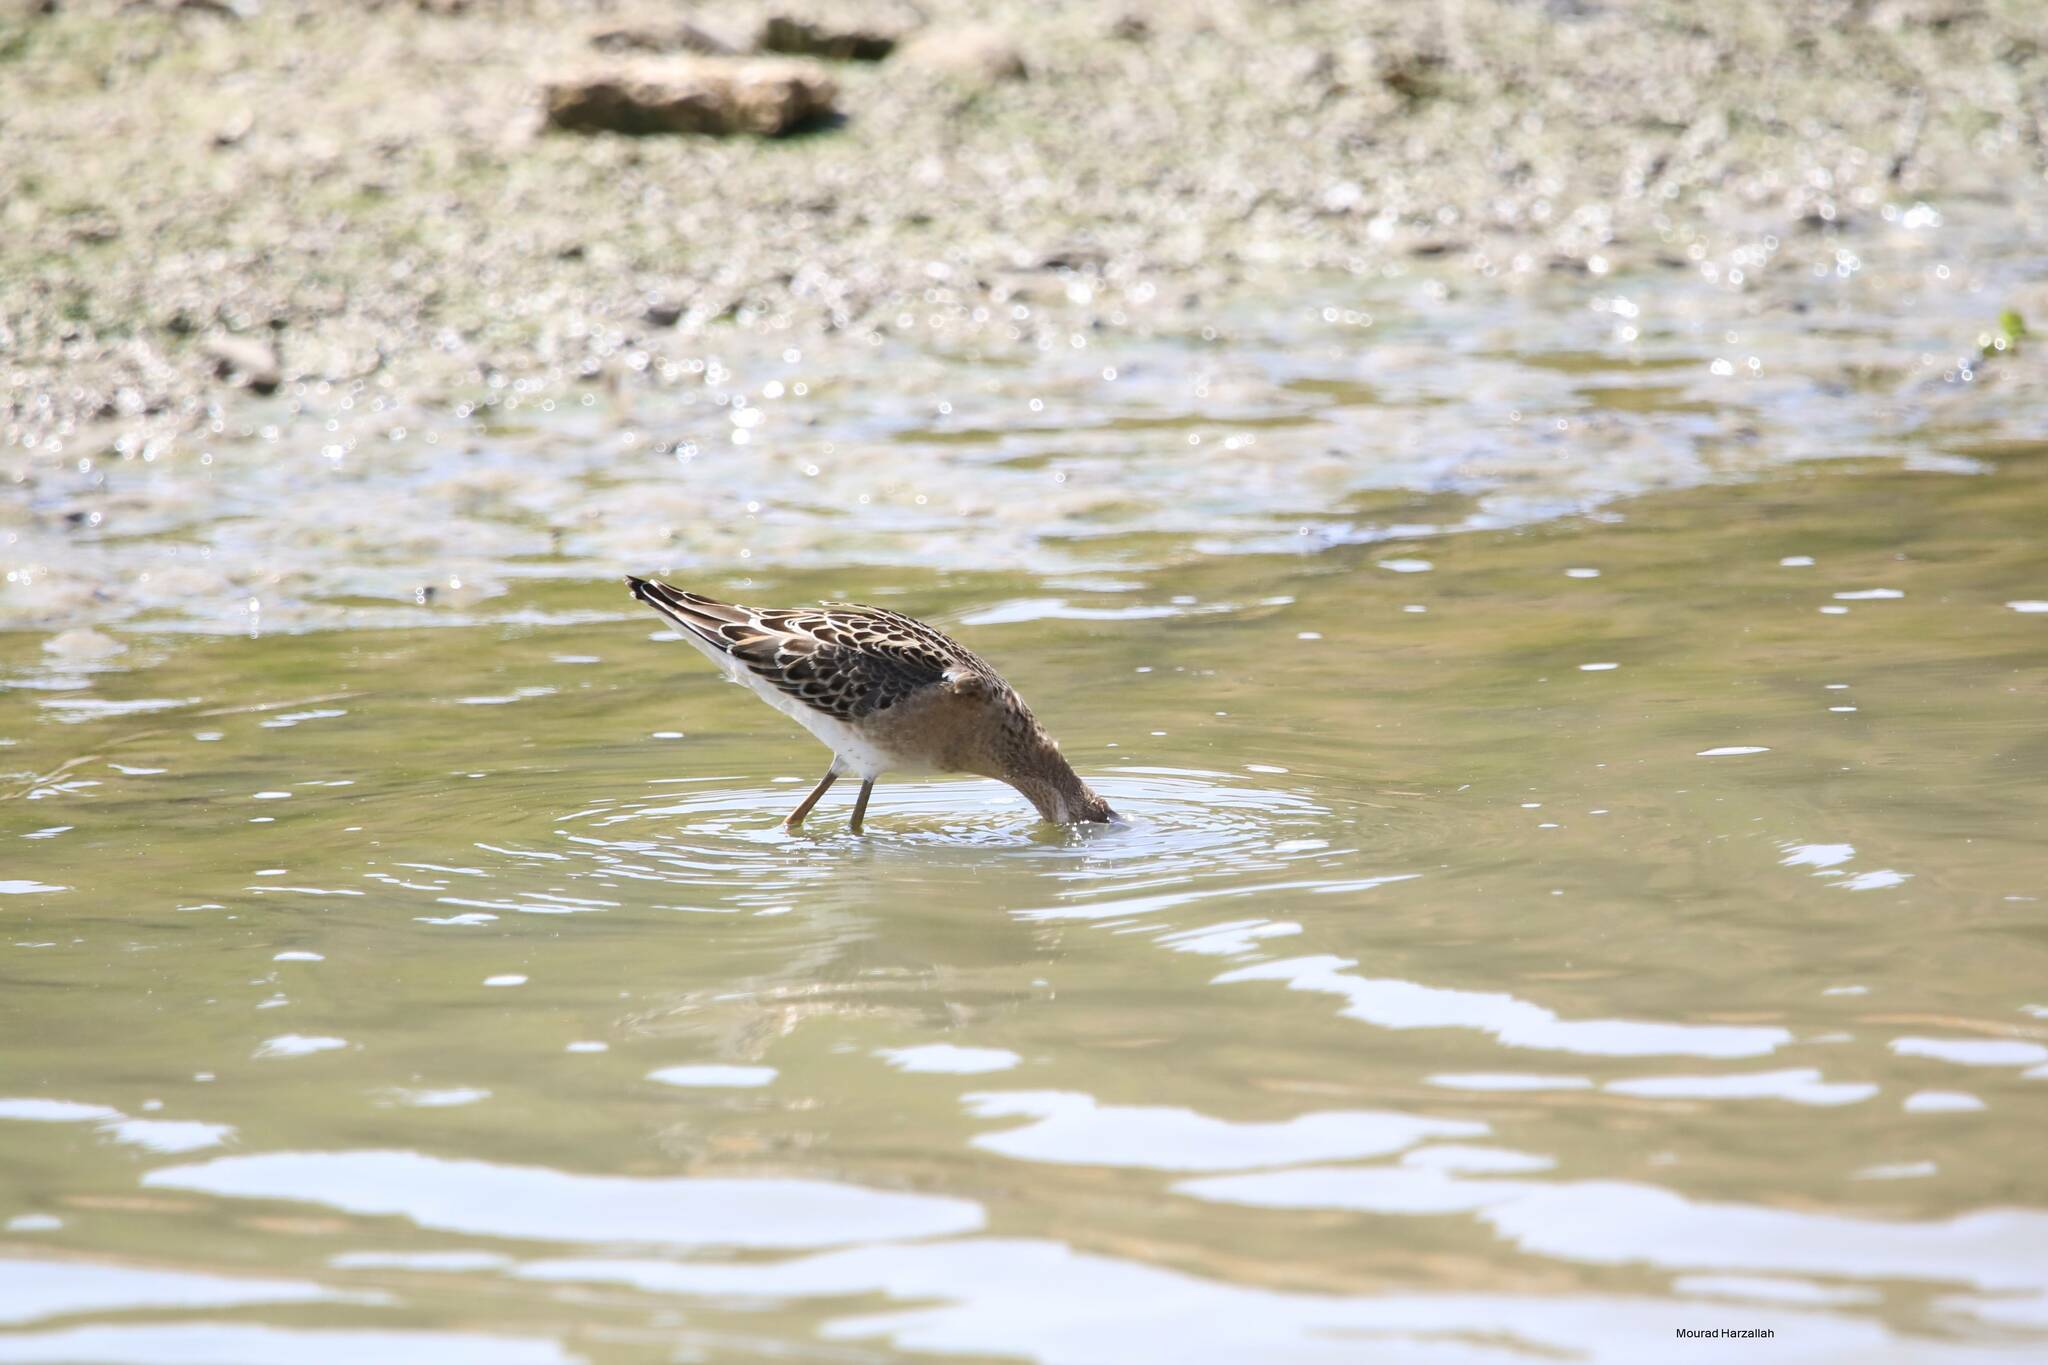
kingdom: Animalia
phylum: Chordata
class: Aves
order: Charadriiformes
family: Scolopacidae
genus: Calidris
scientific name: Calidris pugnax
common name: Ruff
